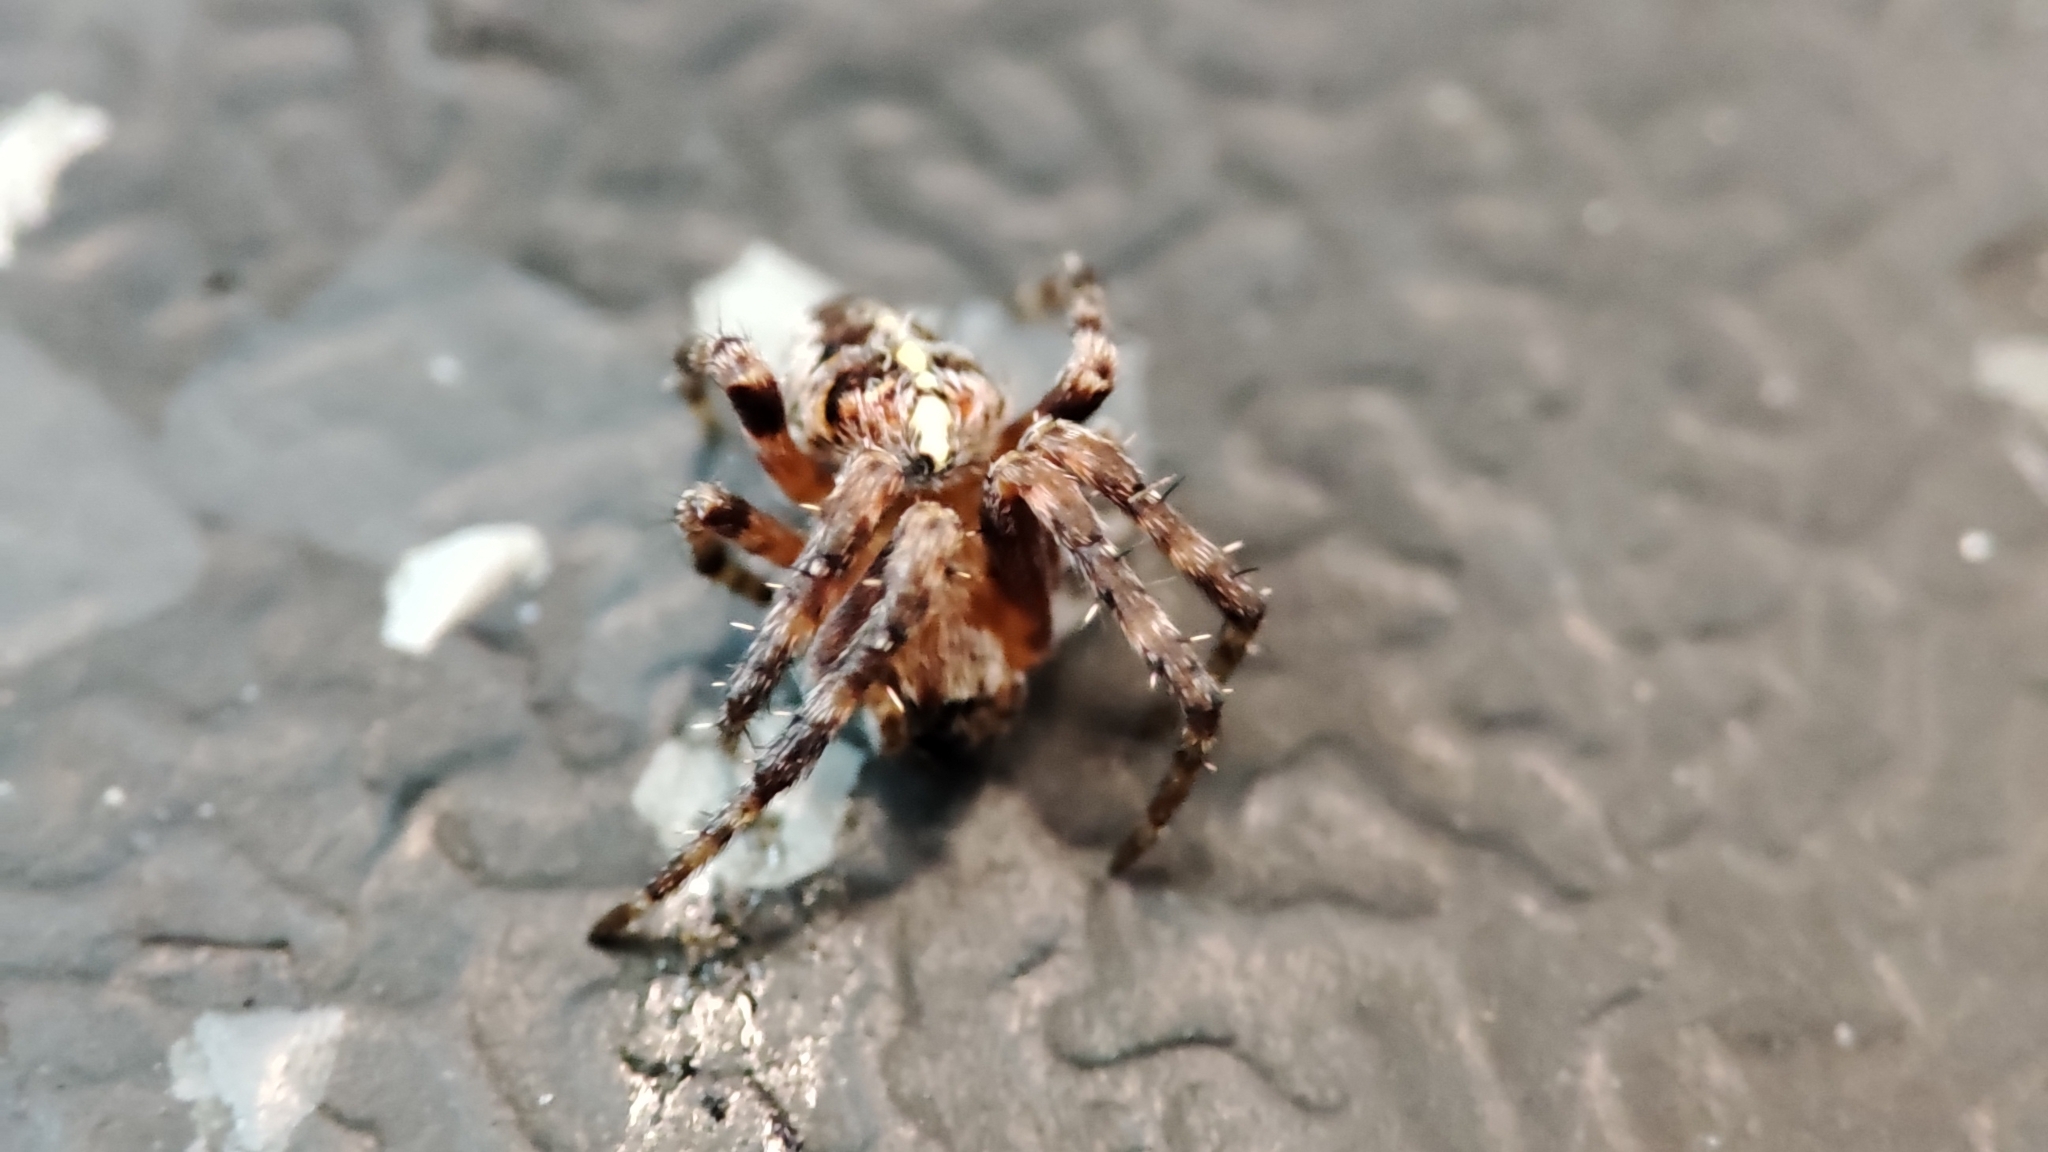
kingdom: Animalia
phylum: Arthropoda
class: Arachnida
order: Araneae
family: Araneidae
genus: Araneus
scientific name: Araneus diadematus
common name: Cross orbweaver
